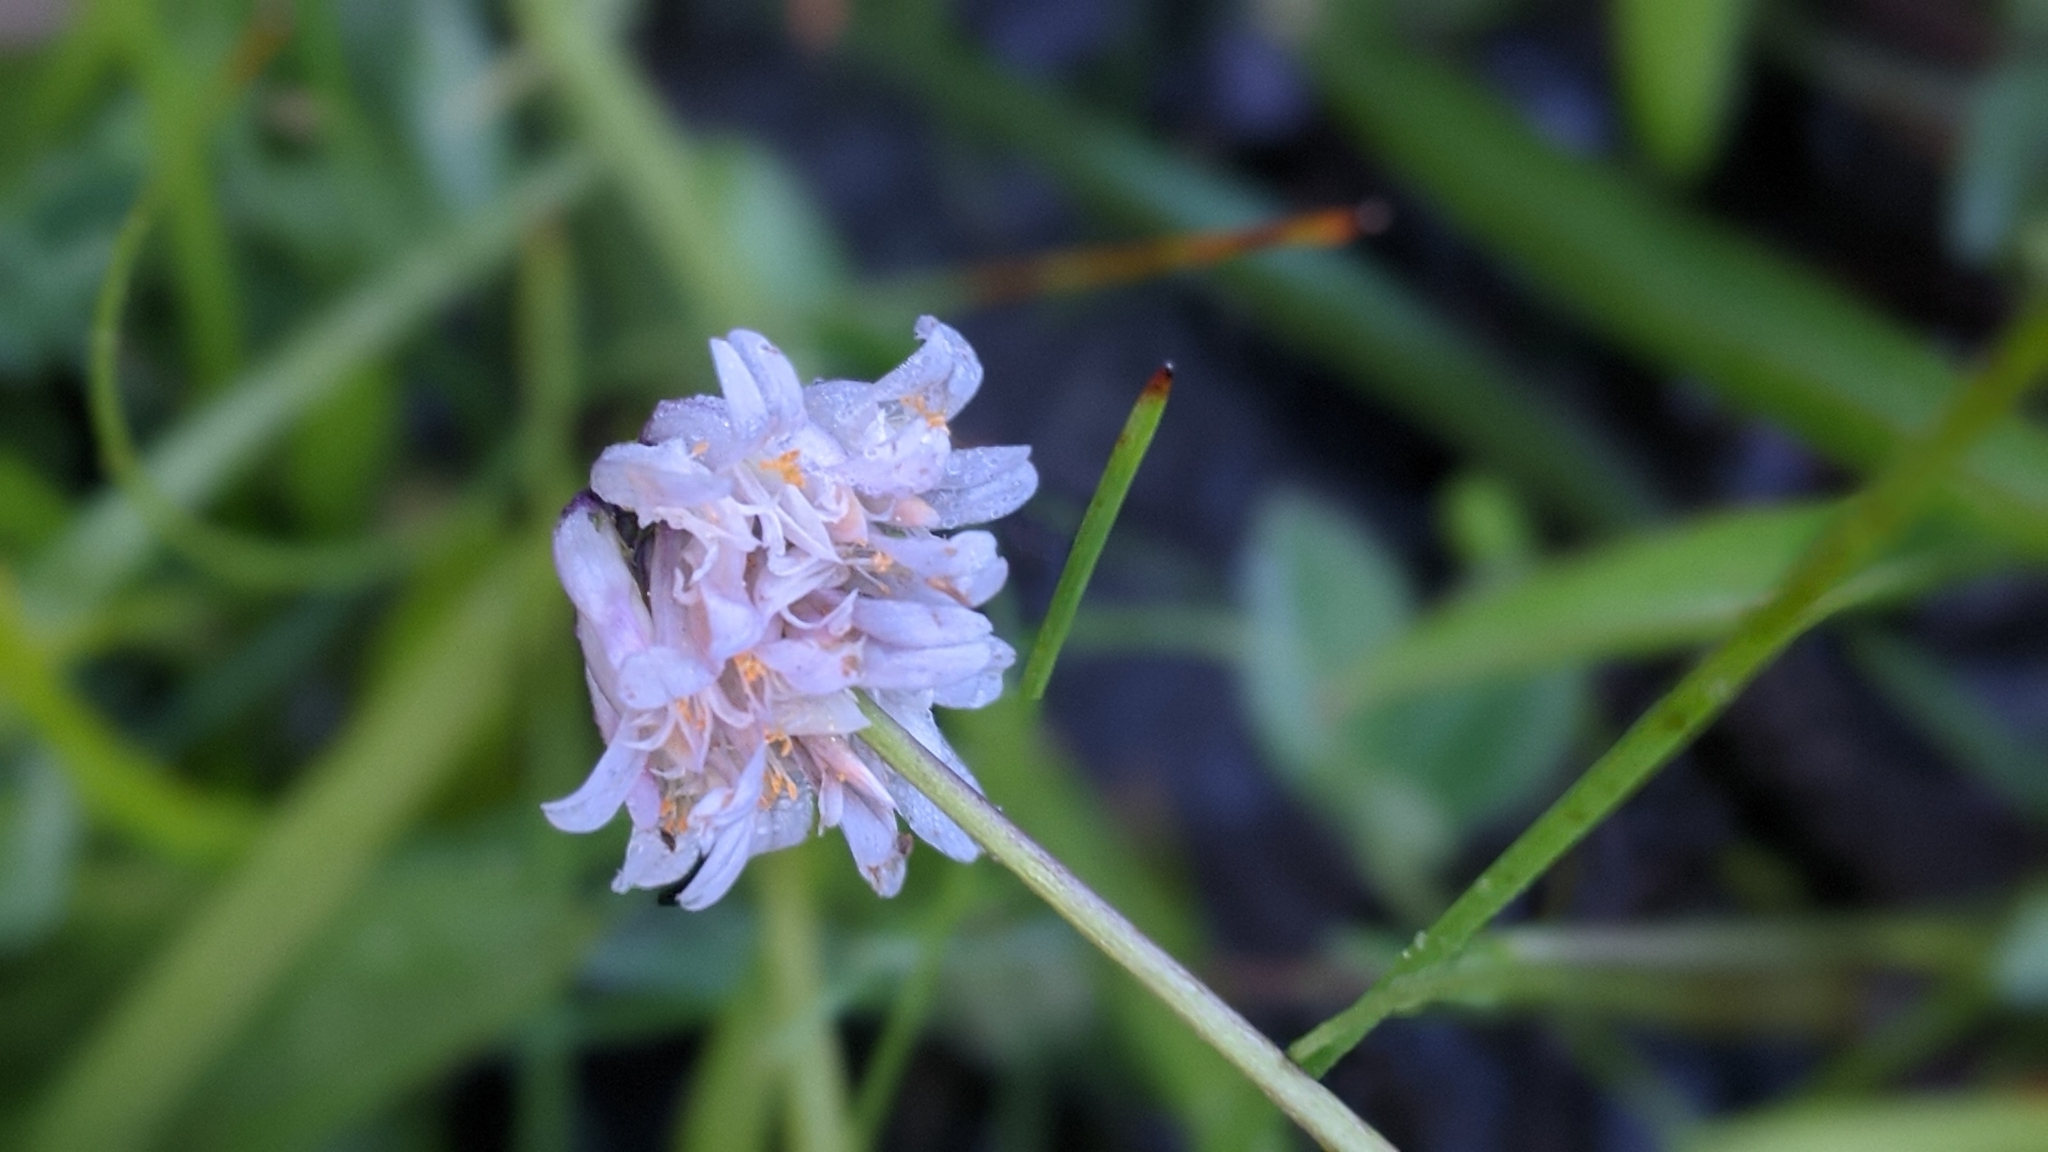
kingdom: Plantae
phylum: Tracheophyta
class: Magnoliopsida
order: Fabales
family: Fabaceae
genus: Trifolium
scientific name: Trifolium bolanderi
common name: Bolander's clover
